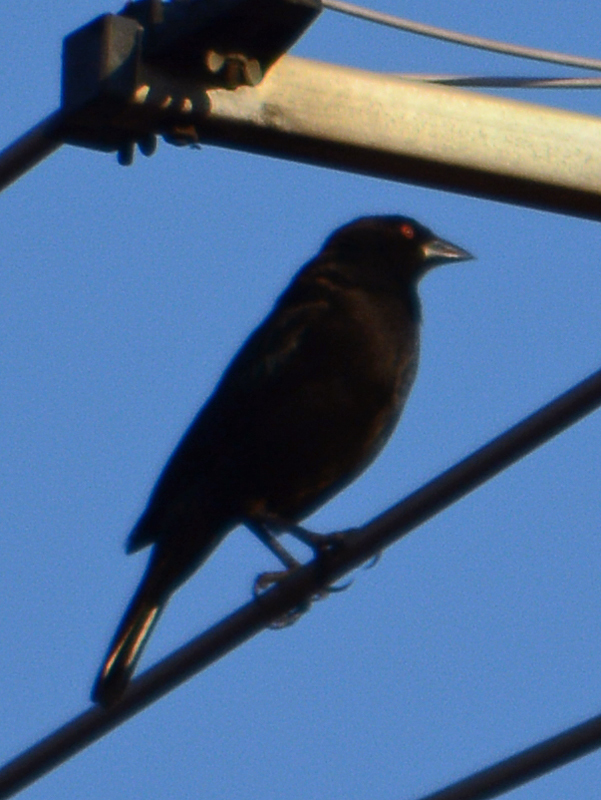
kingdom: Animalia
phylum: Chordata
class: Aves
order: Passeriformes
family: Icteridae
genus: Molothrus
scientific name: Molothrus aeneus
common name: Bronzed cowbird
